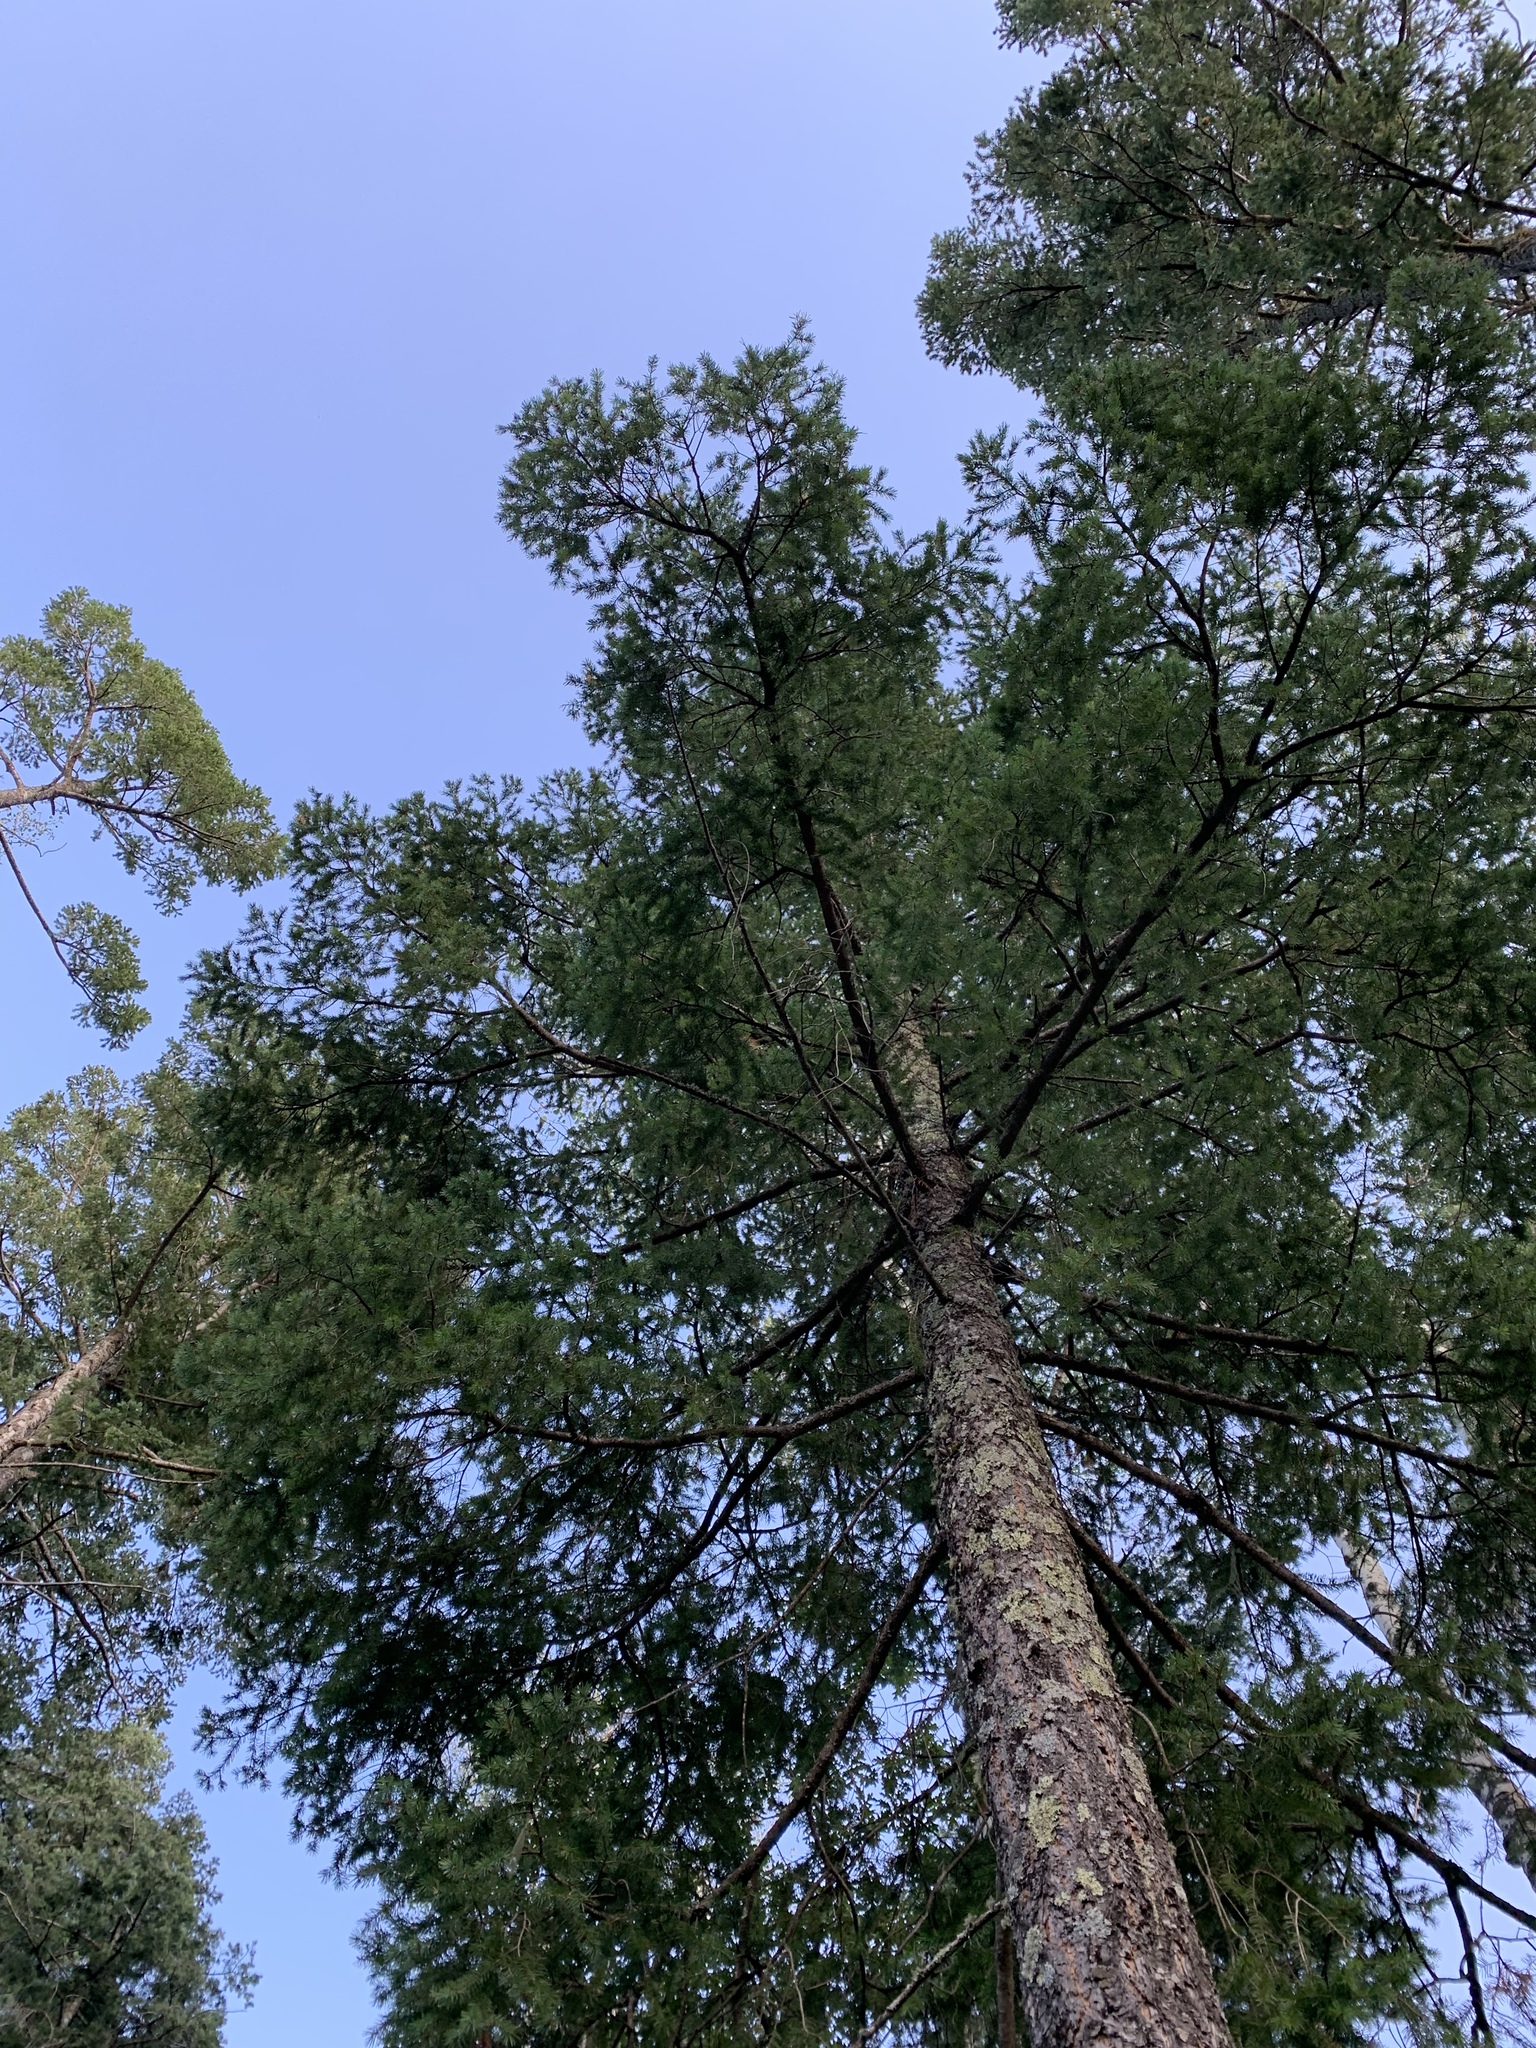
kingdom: Plantae
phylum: Tracheophyta
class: Pinopsida
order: Pinales
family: Pinaceae
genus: Pseudotsuga
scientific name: Pseudotsuga menziesii
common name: Douglas fir
